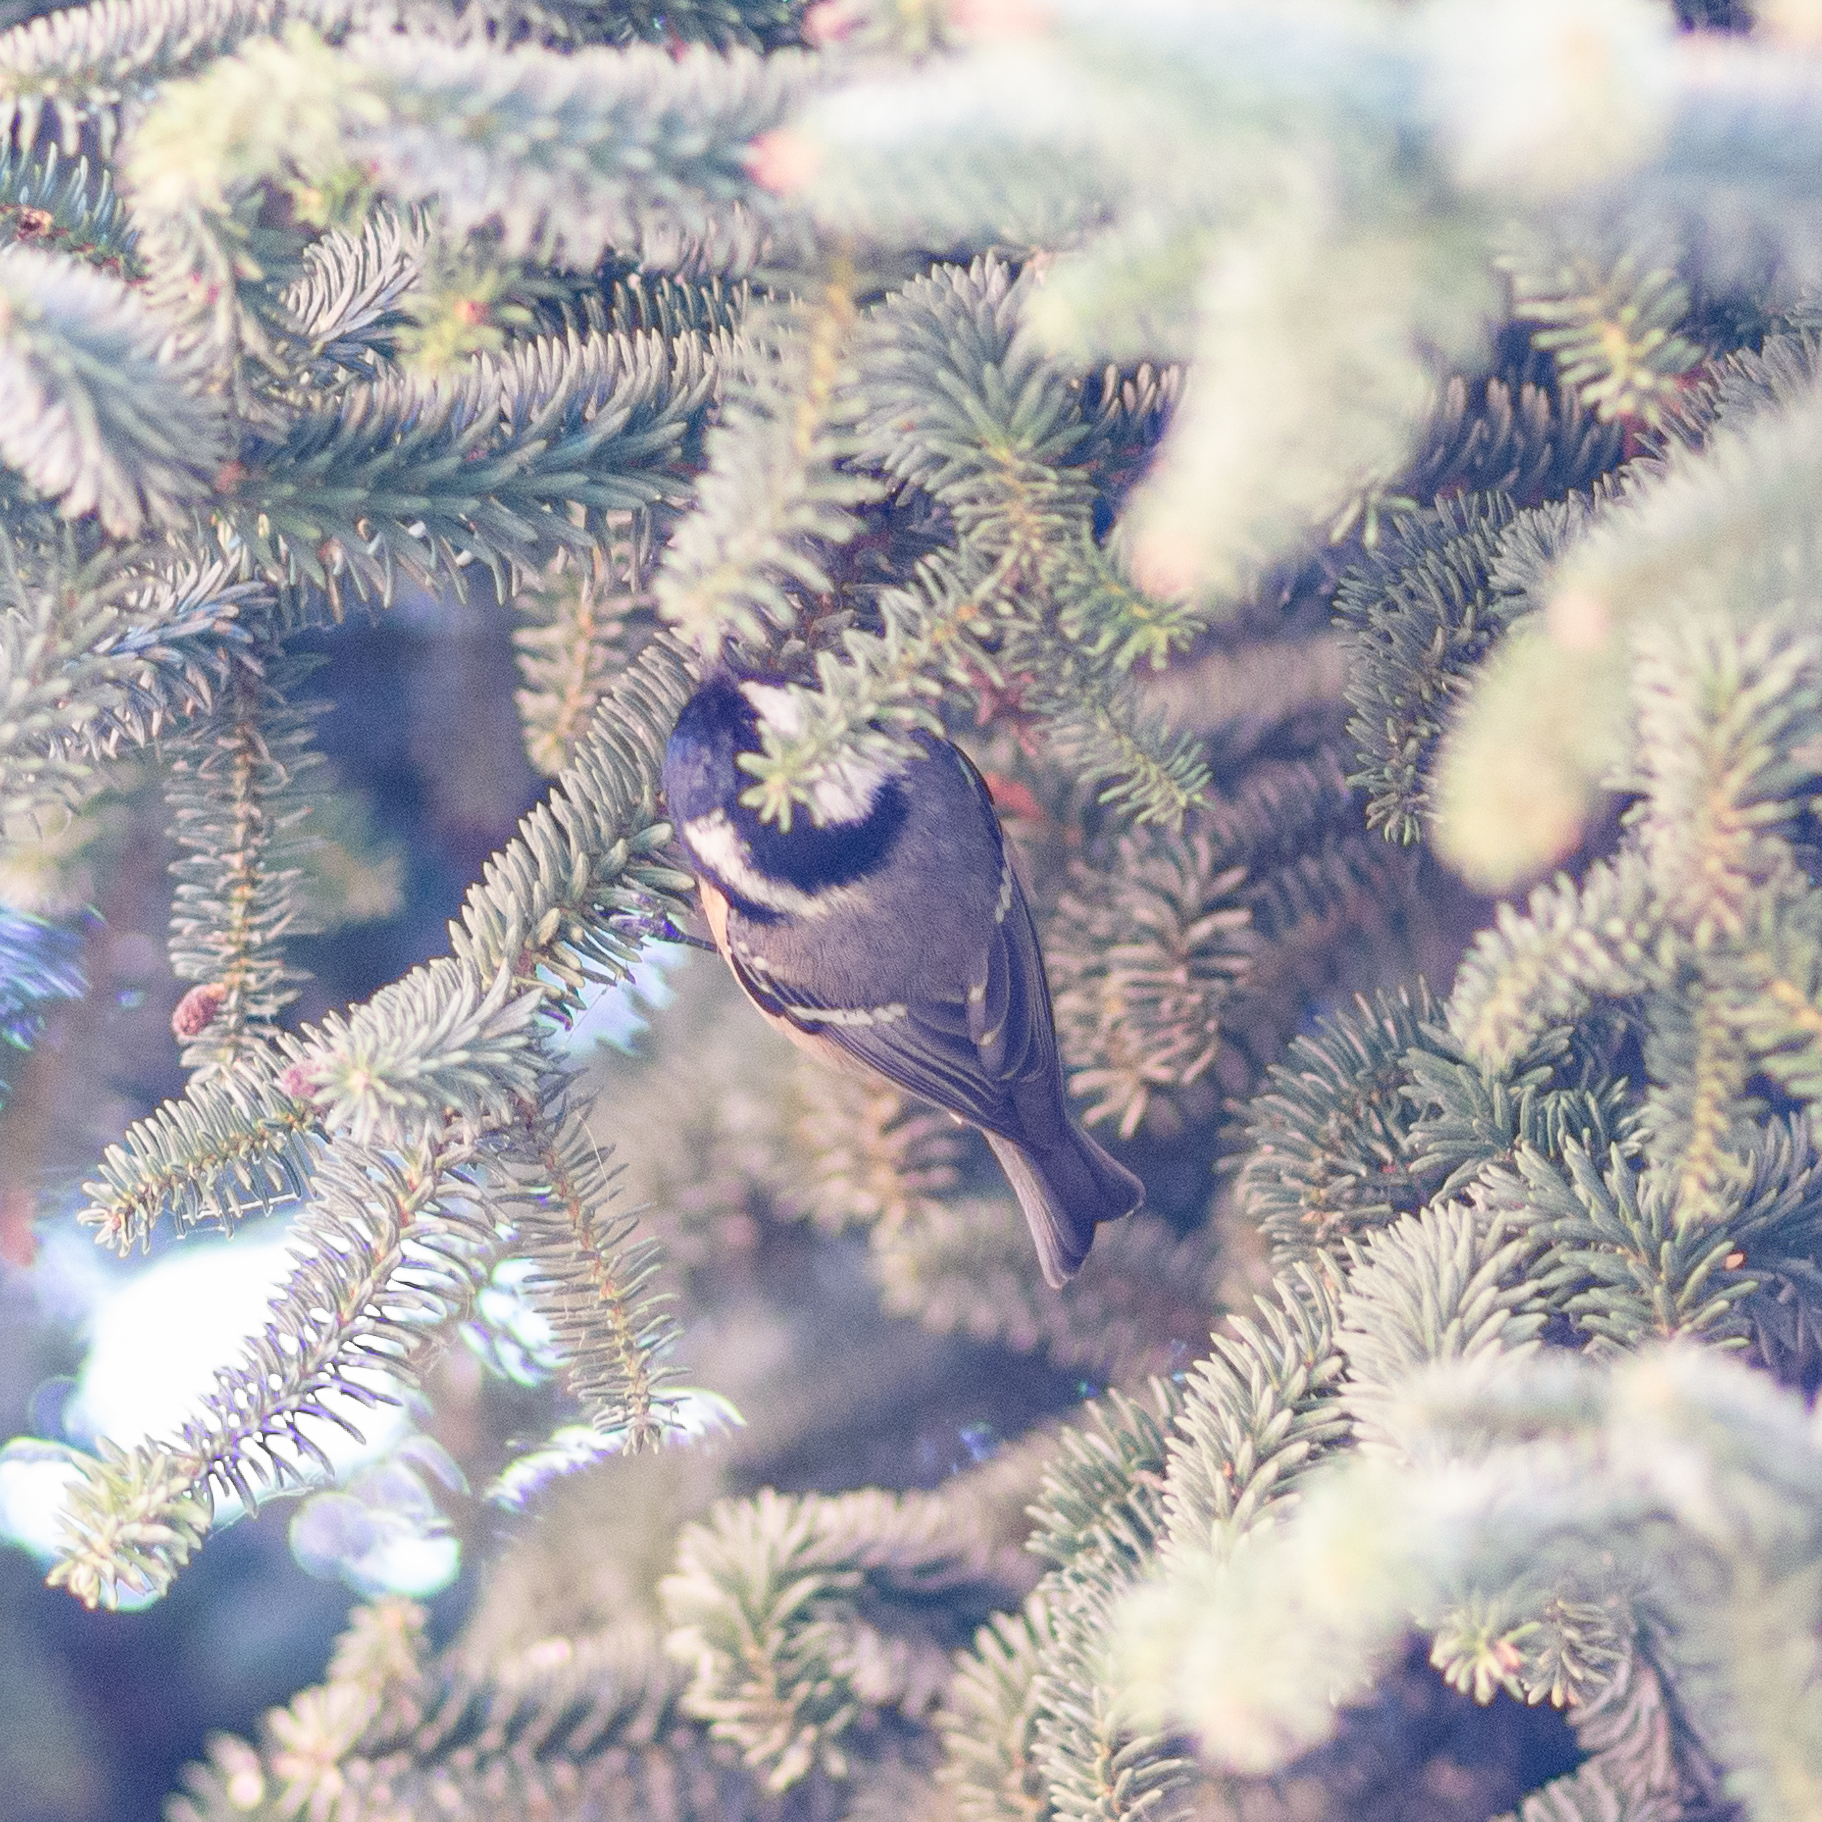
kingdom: Animalia
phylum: Chordata
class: Aves
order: Passeriformes
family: Paridae
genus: Periparus
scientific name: Periparus ater
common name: Coal tit
